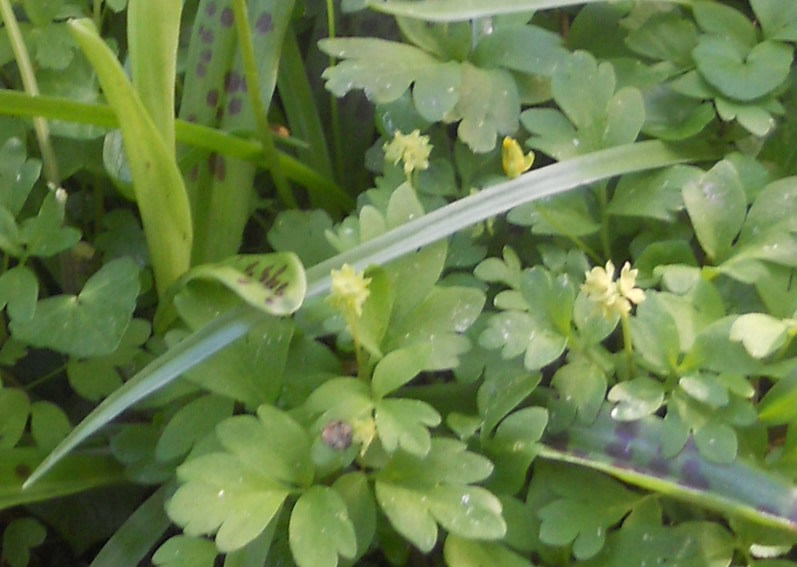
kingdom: Plantae
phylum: Tracheophyta
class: Magnoliopsida
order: Dipsacales
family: Viburnaceae
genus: Adoxa
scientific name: Adoxa moschatellina
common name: Moschatel
